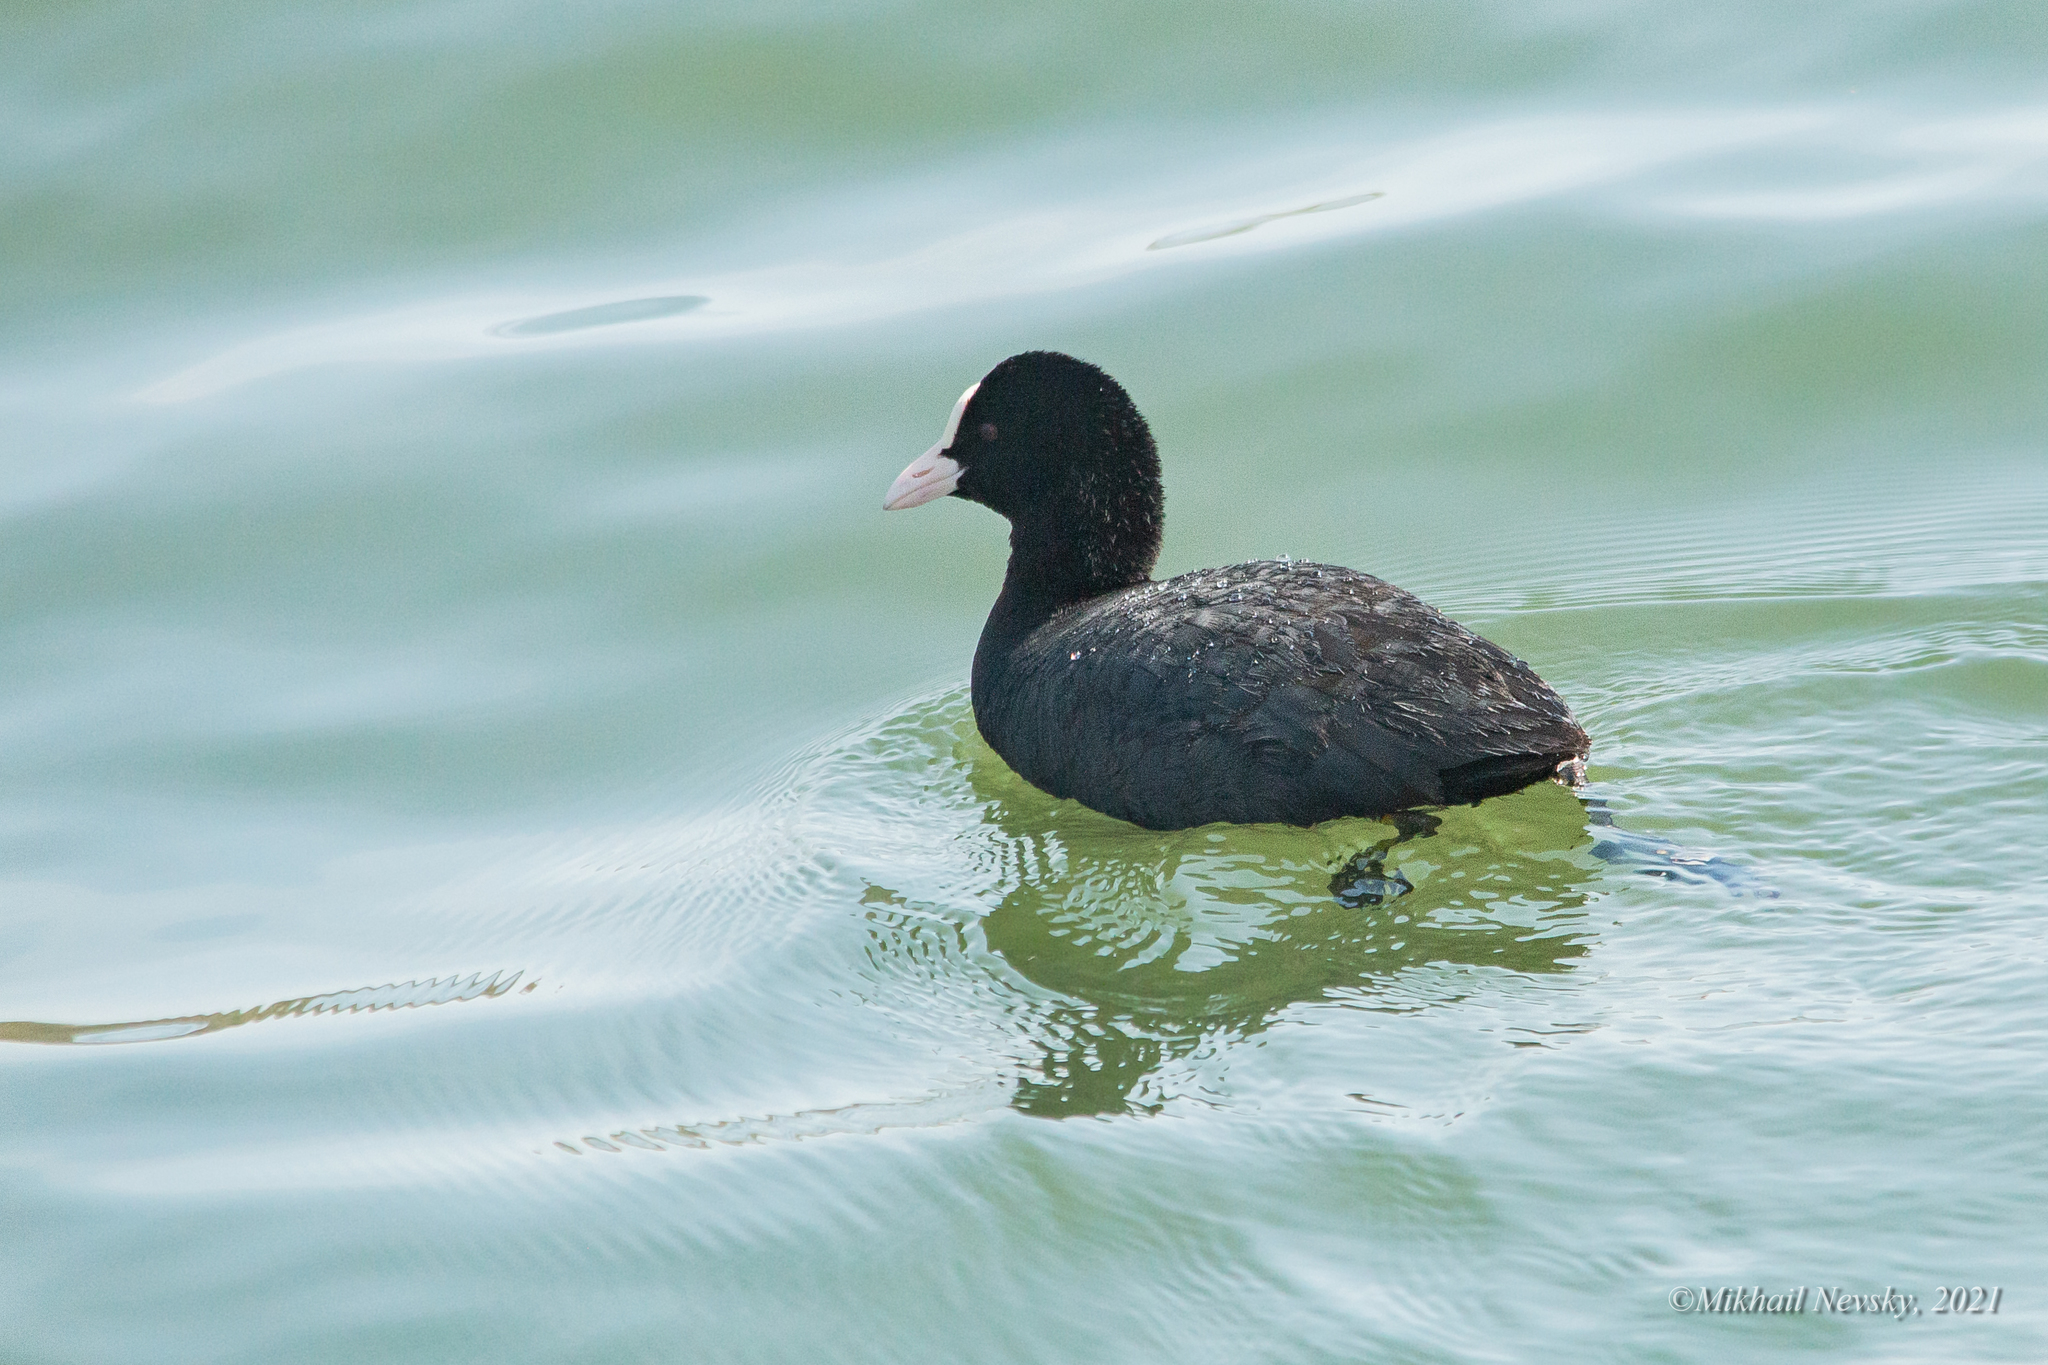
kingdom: Animalia
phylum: Chordata
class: Aves
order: Gruiformes
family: Rallidae
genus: Fulica
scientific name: Fulica atra
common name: Eurasian coot
